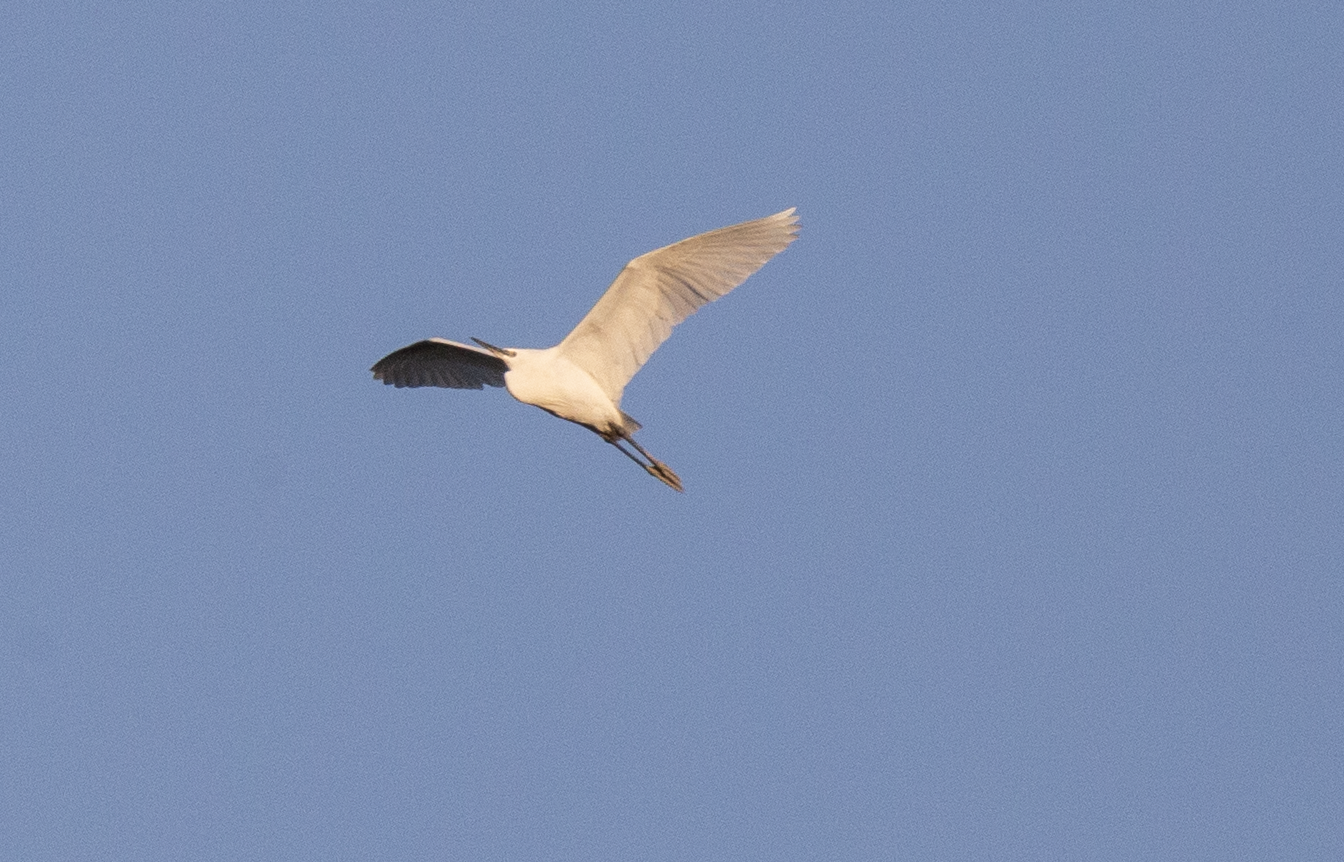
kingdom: Animalia
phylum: Chordata
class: Aves
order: Pelecaniformes
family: Ardeidae
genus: Egretta
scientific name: Egretta garzetta
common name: Little egret
